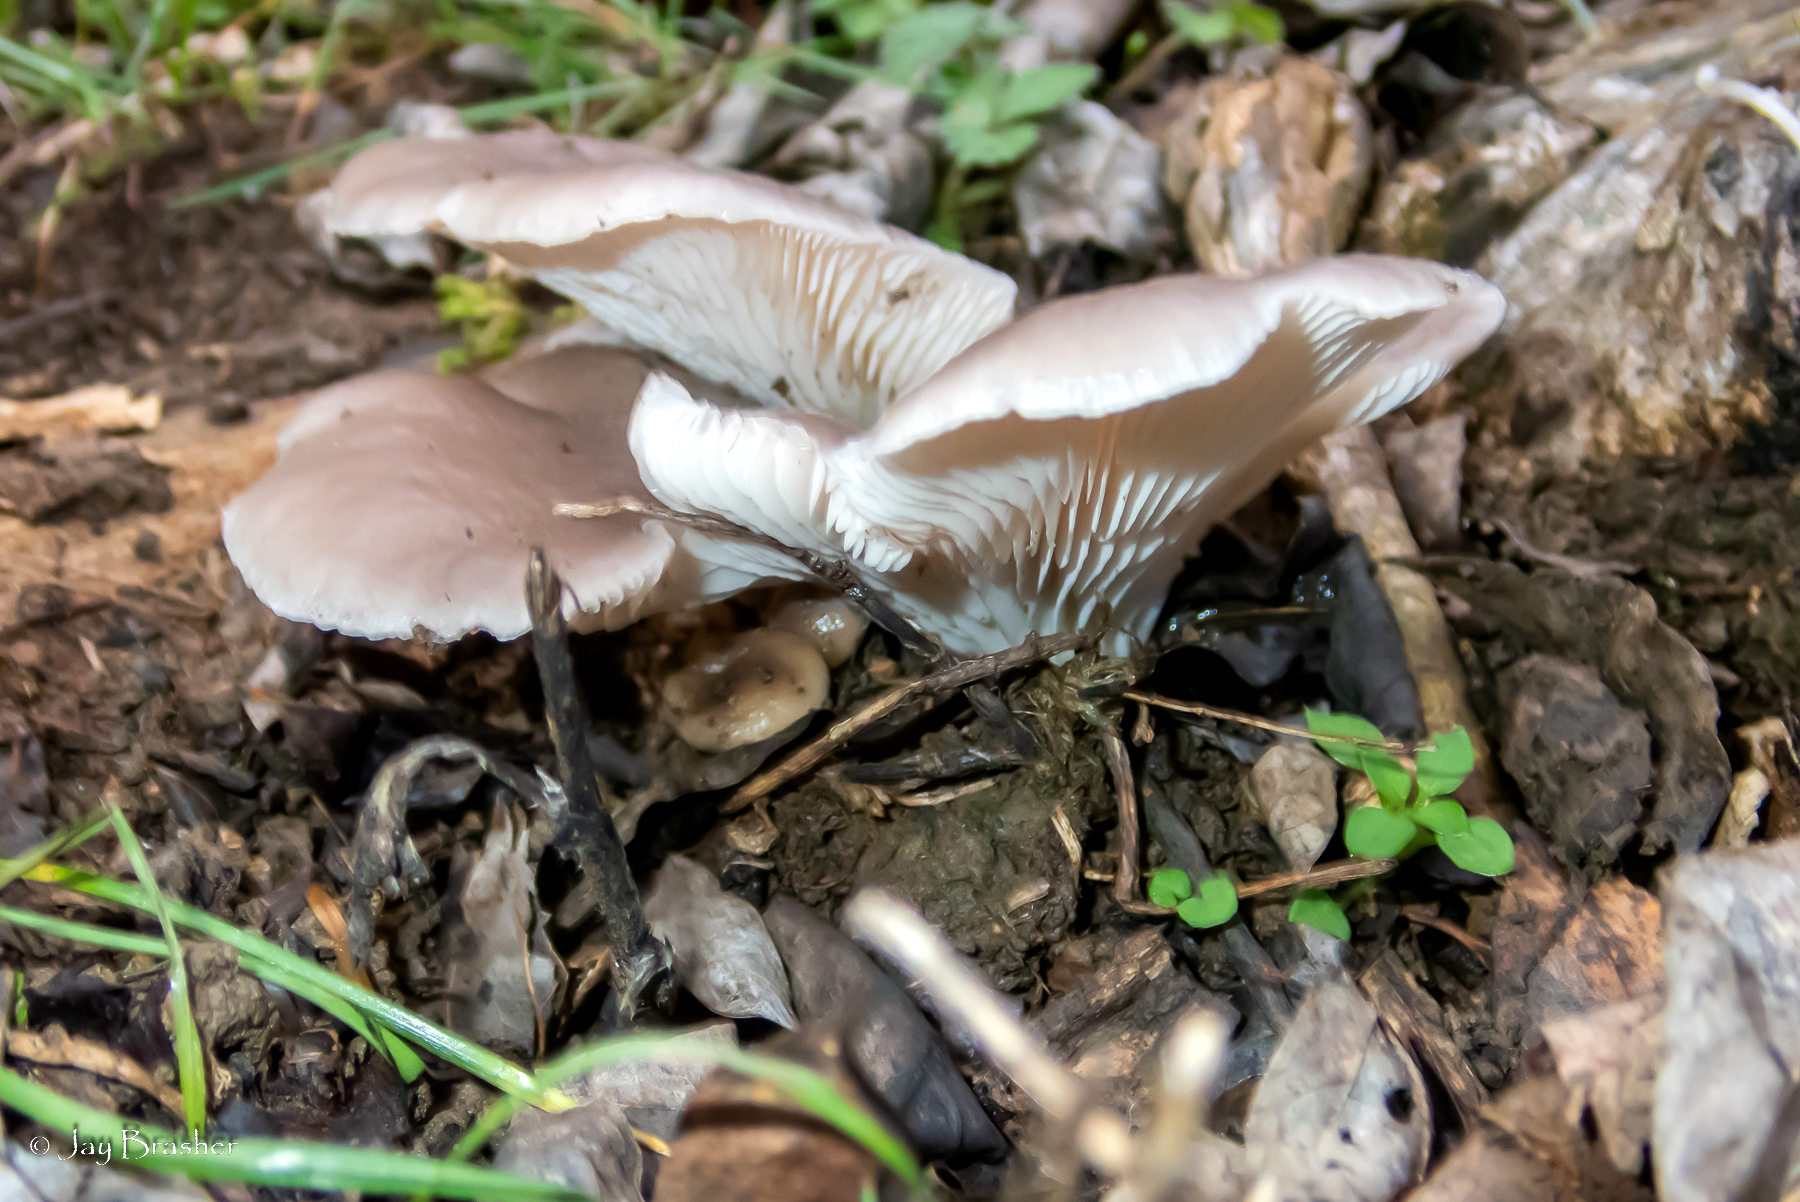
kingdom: Fungi
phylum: Basidiomycota
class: Agaricomycetes
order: Agaricales
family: Pleurotaceae
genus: Pleurotus
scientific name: Pleurotus ostreatus
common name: Oyster mushroom
